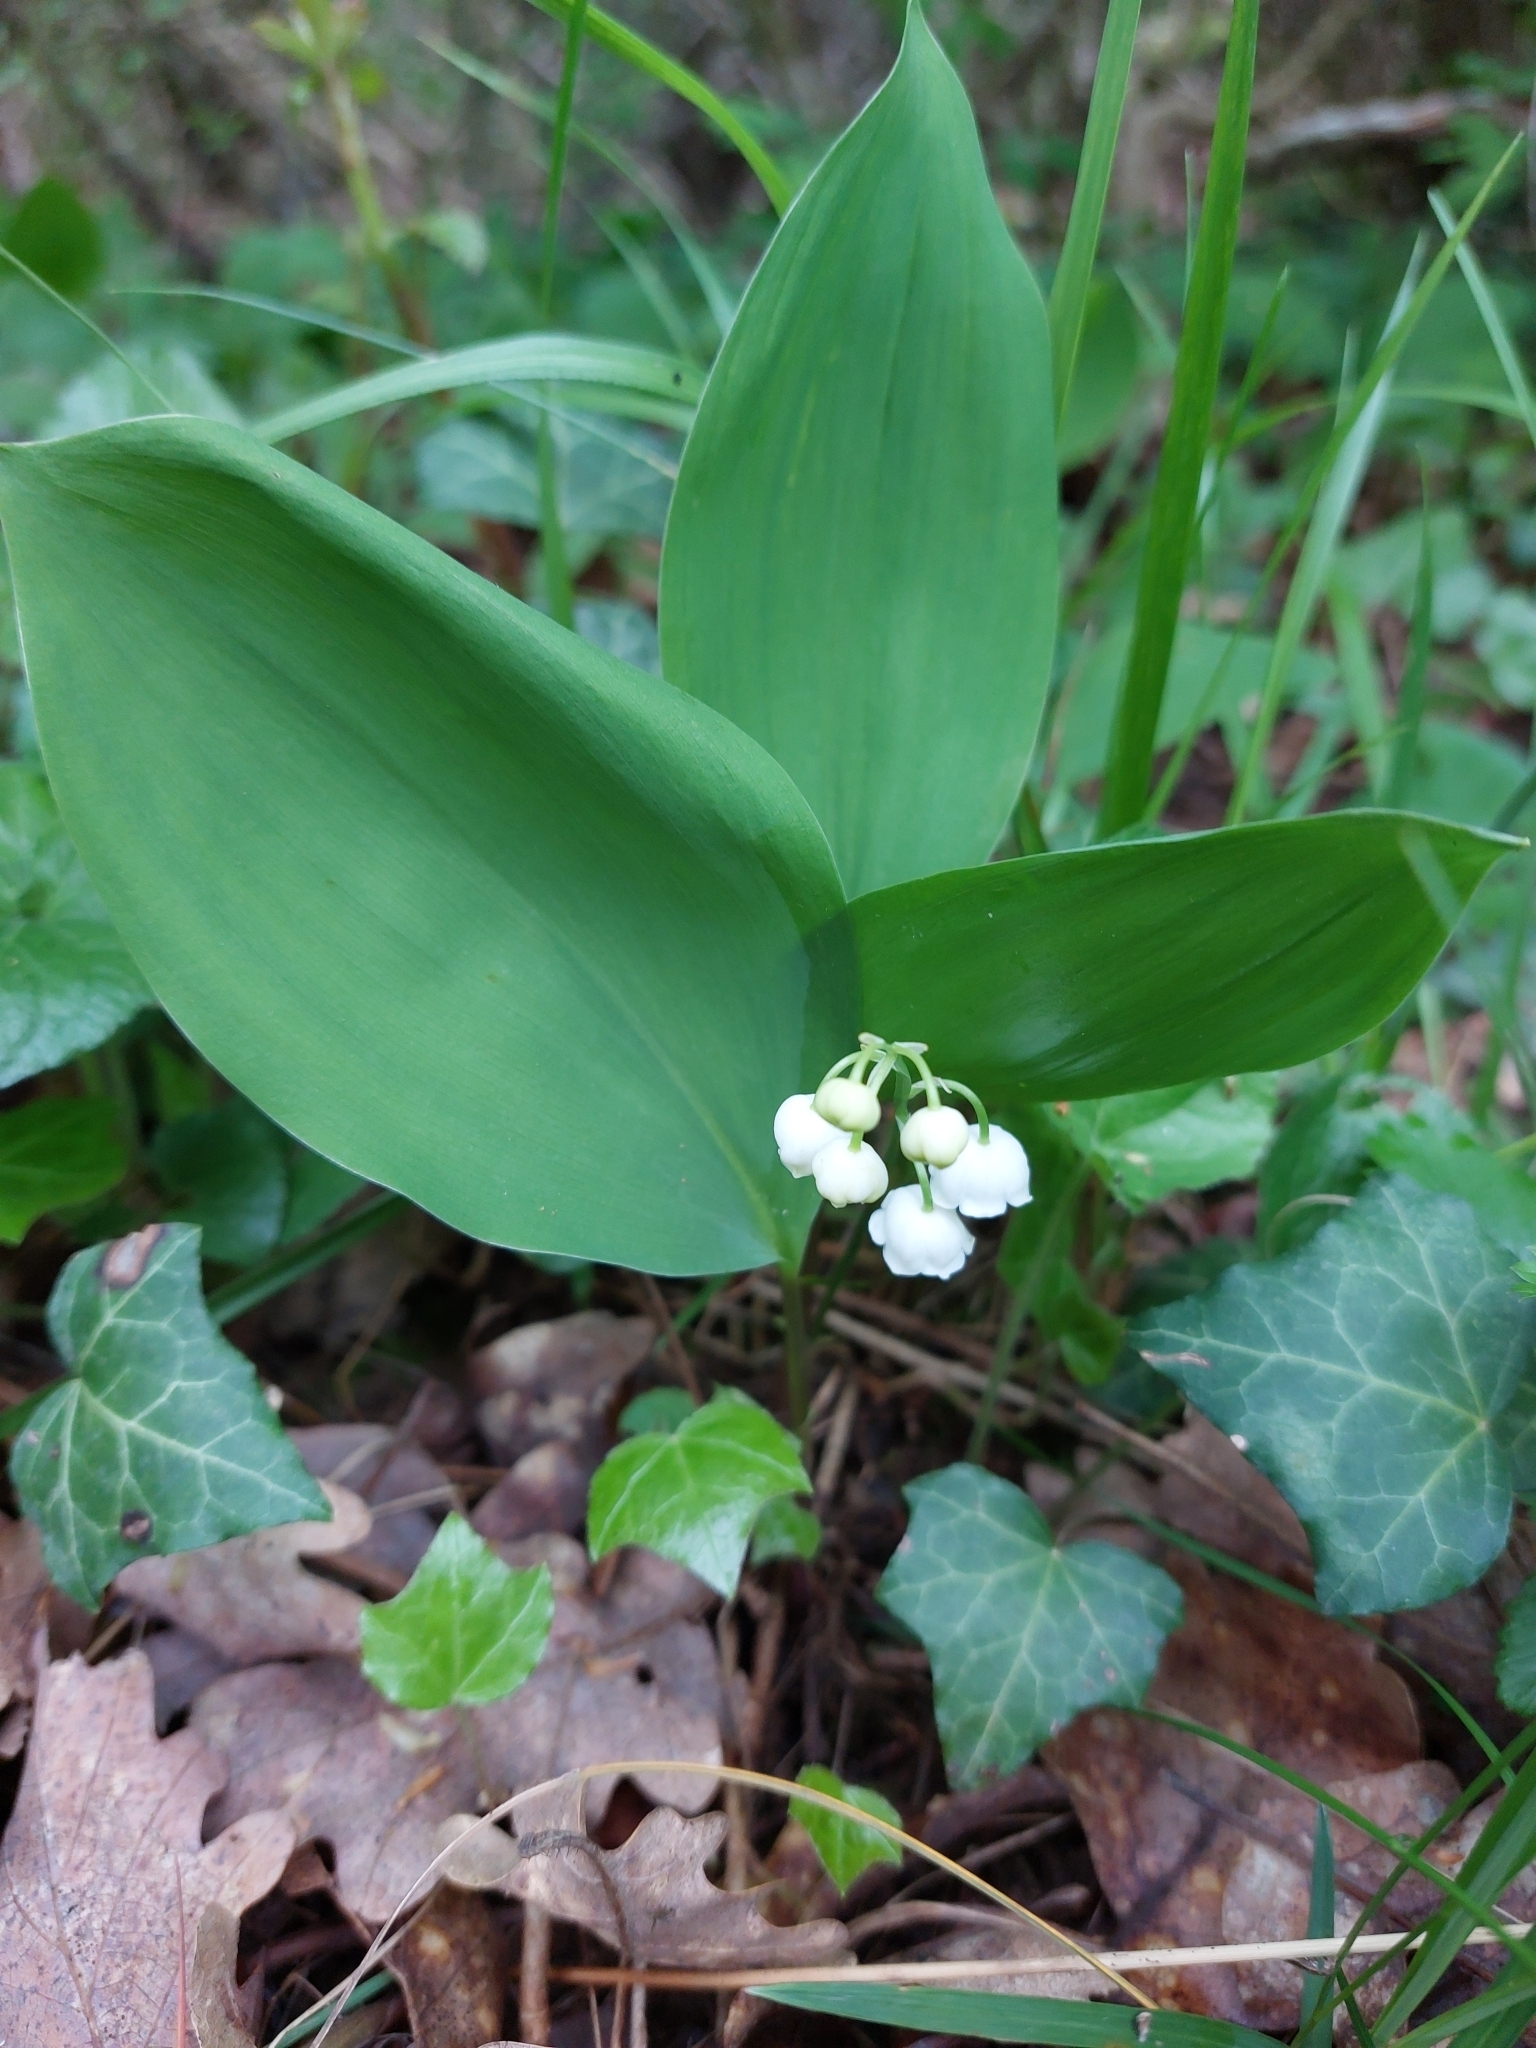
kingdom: Plantae
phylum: Tracheophyta
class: Liliopsida
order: Asparagales
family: Asparagaceae
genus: Convallaria
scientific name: Convallaria majalis
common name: Lily-of-the-valley
